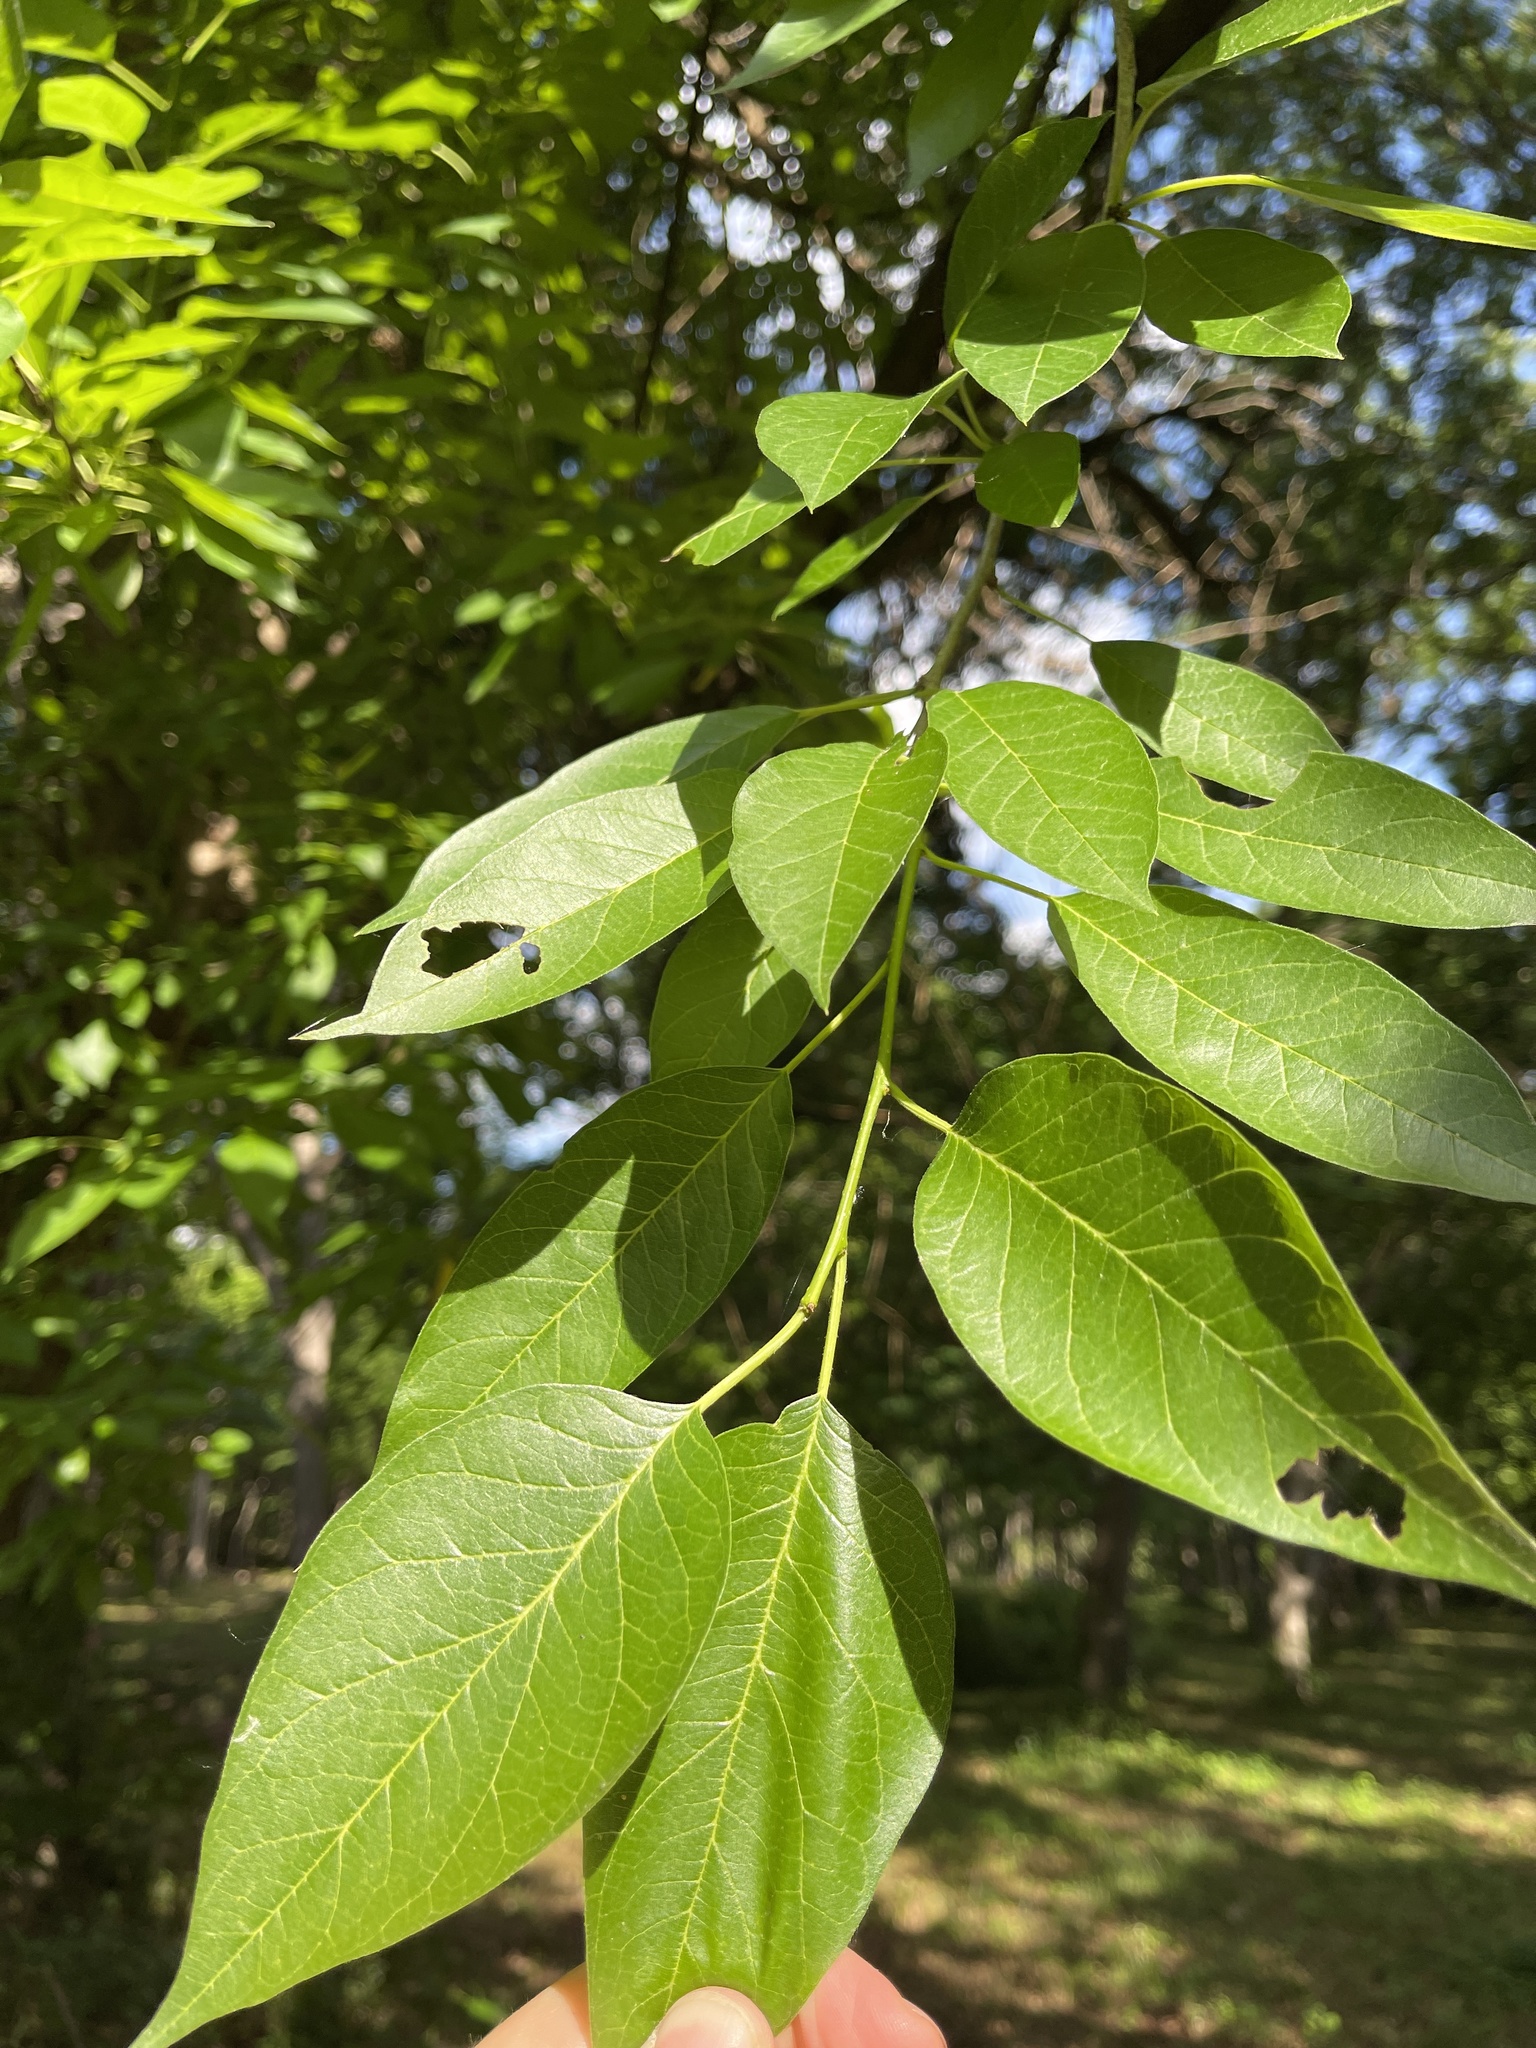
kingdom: Plantae
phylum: Tracheophyta
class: Magnoliopsida
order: Rosales
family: Moraceae
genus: Maclura
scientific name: Maclura pomifera
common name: Osage-orange
